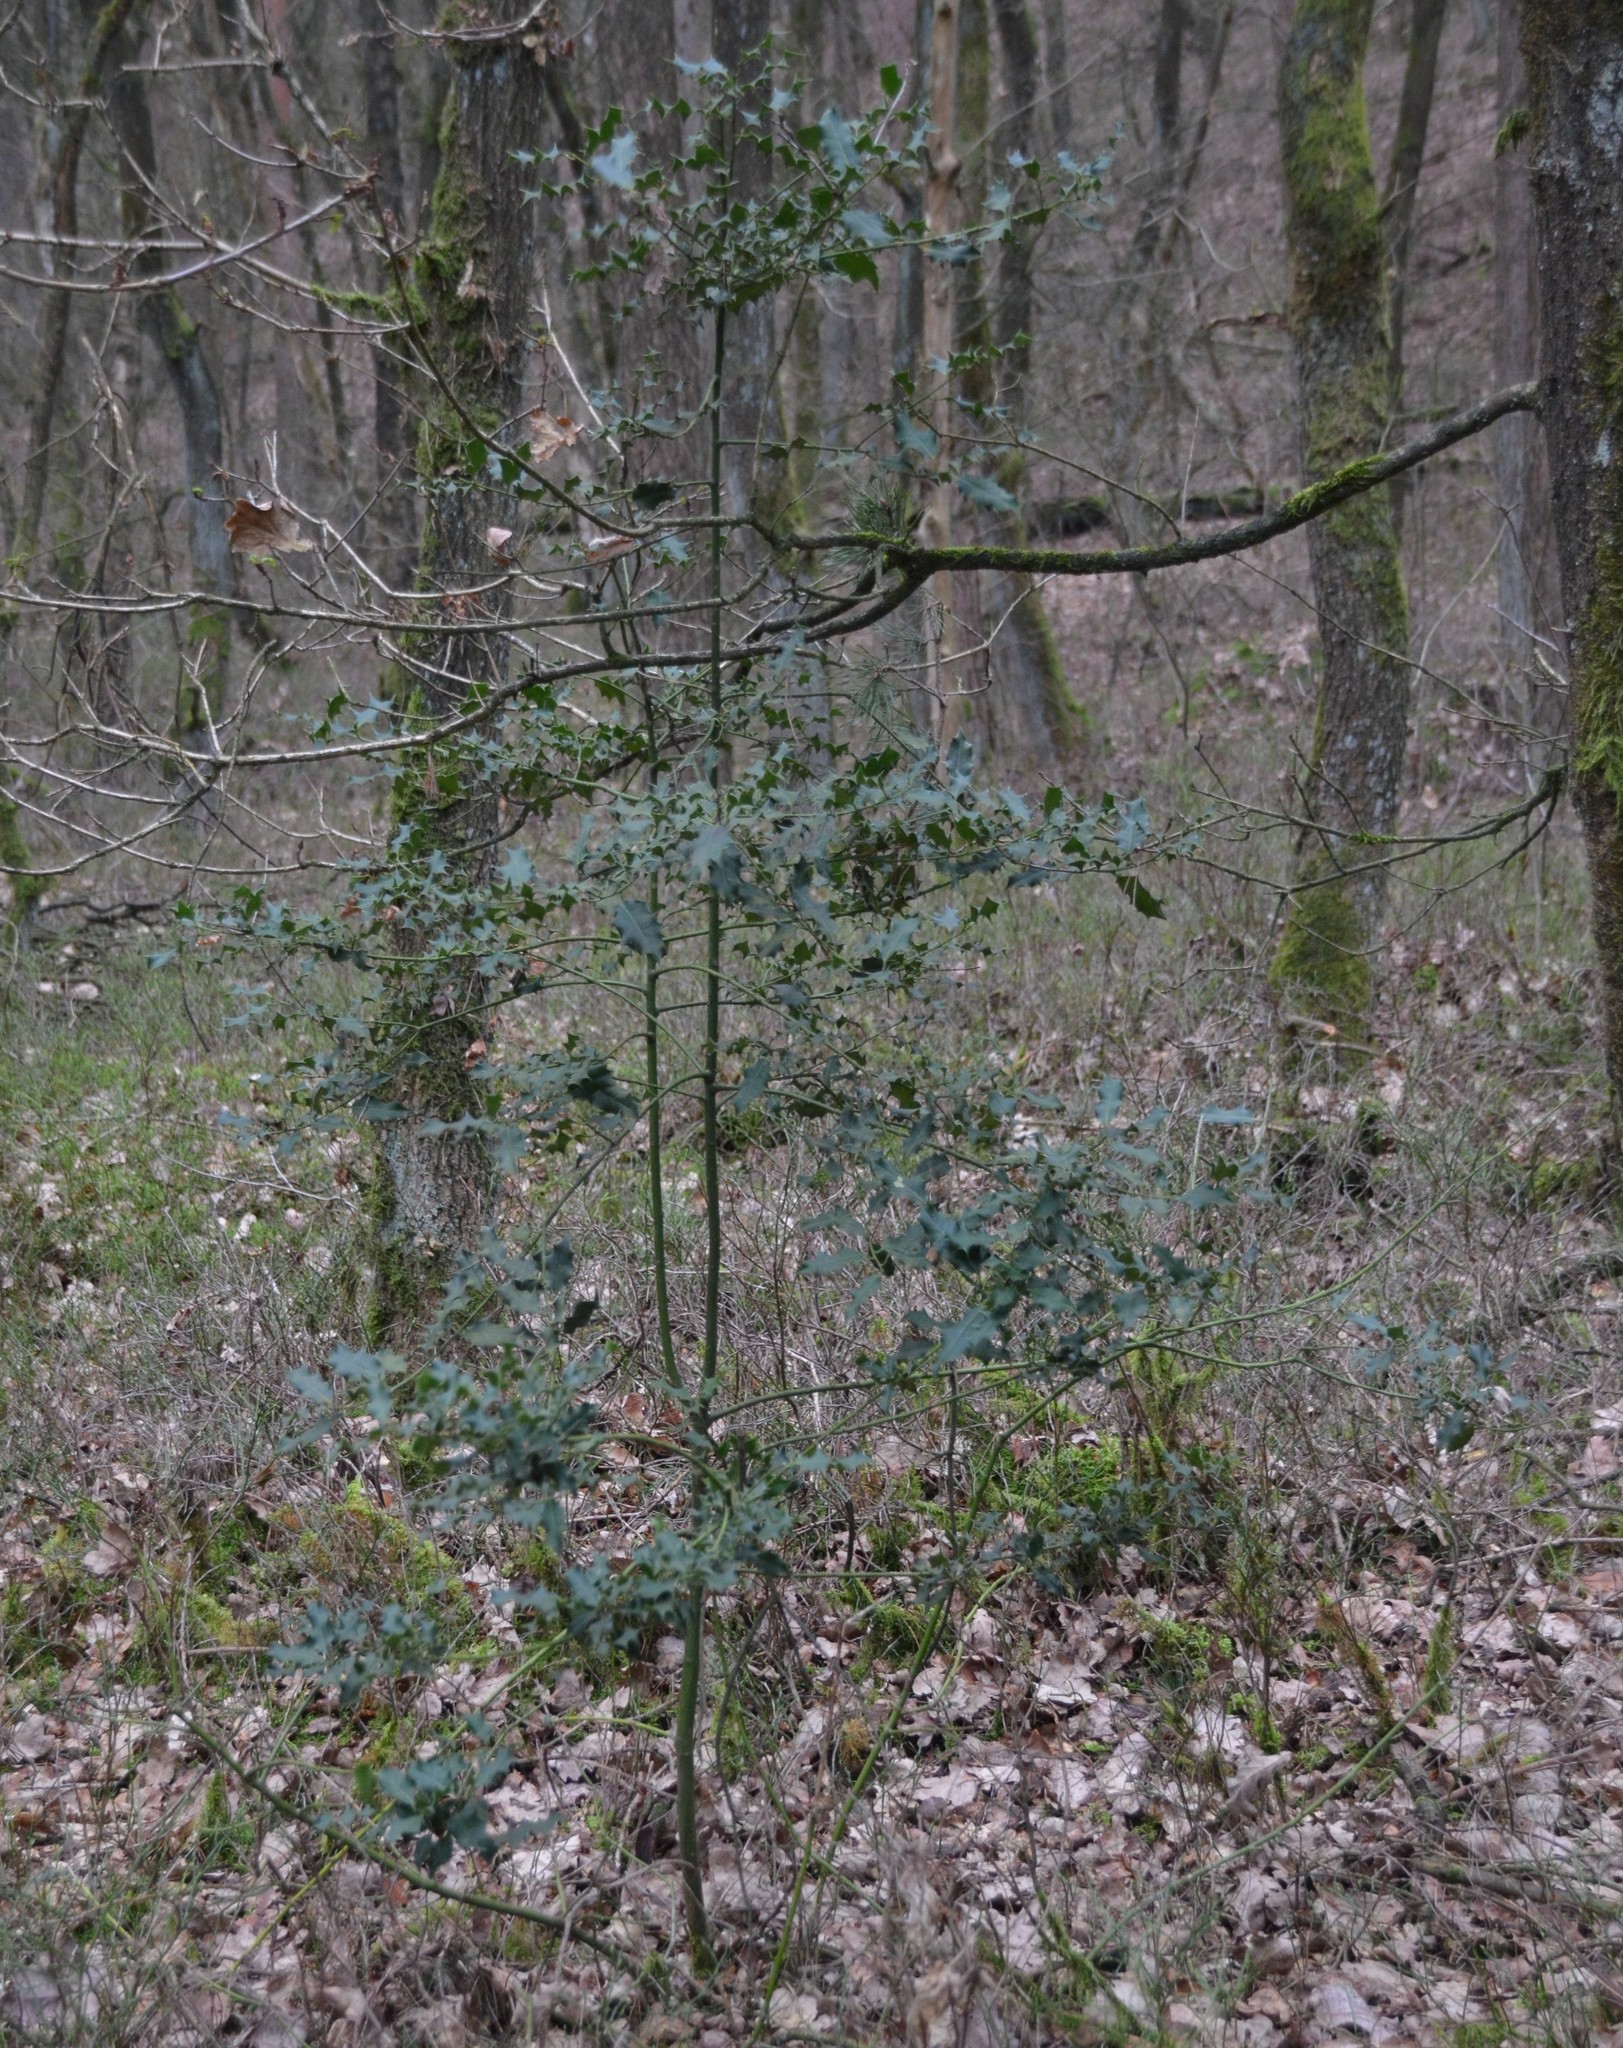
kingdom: Plantae
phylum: Tracheophyta
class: Magnoliopsida
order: Aquifoliales
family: Aquifoliaceae
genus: Ilex
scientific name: Ilex aquifolium
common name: English holly
